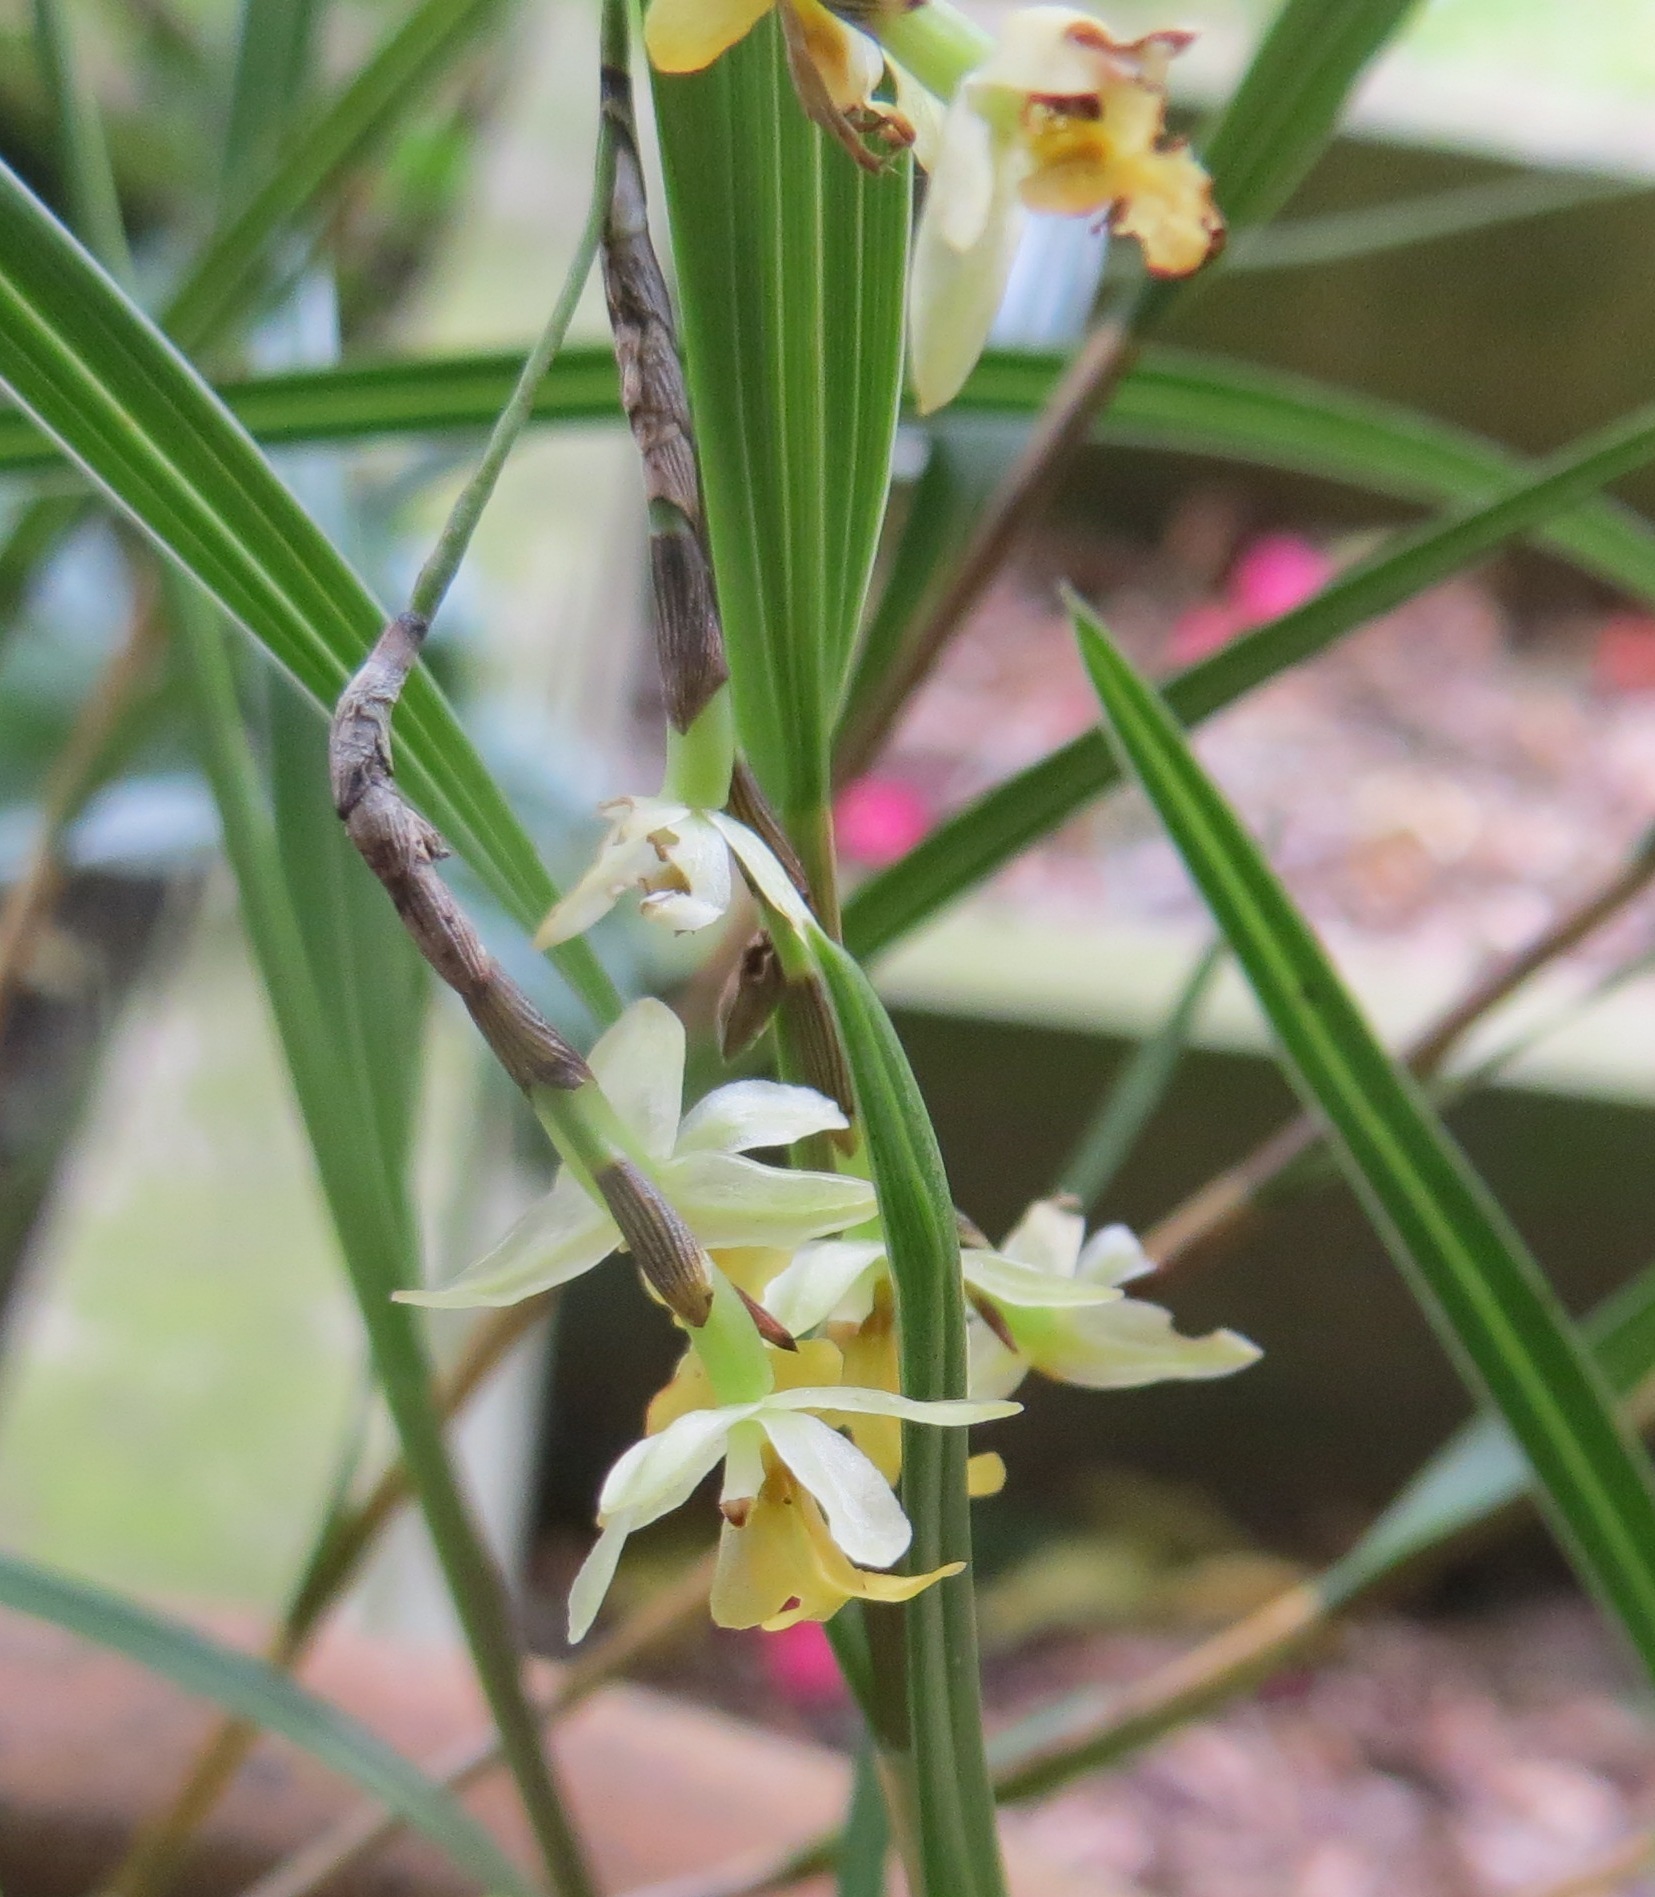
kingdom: Plantae
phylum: Tracheophyta
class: Liliopsida
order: Asparagales
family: Orchidaceae
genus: Earina
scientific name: Earina mucronata
